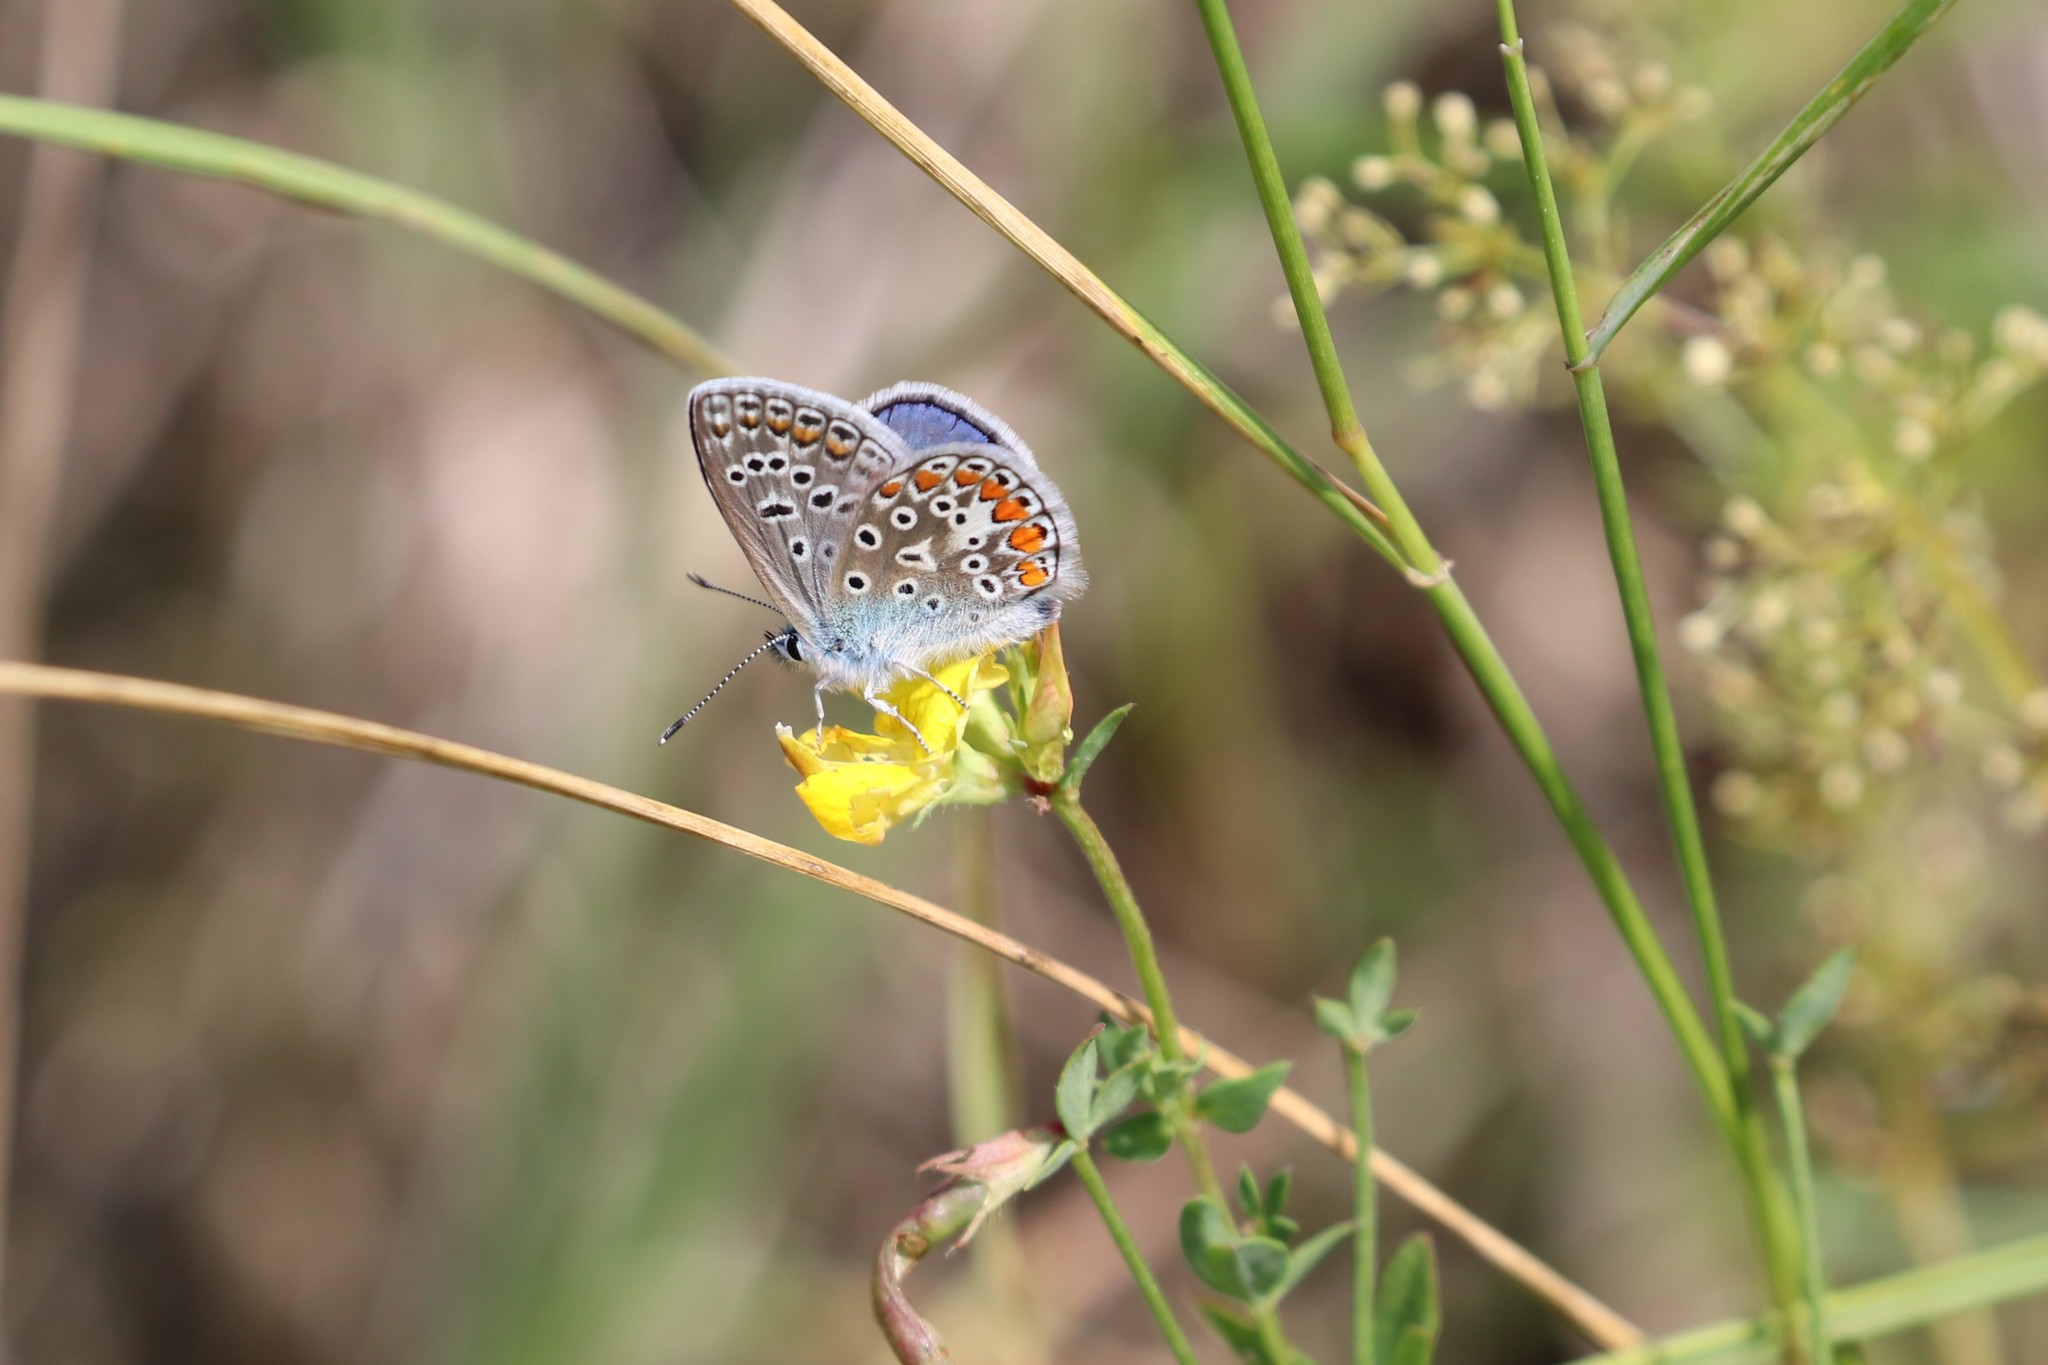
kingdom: Animalia
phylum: Arthropoda
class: Insecta
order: Lepidoptera
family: Lycaenidae
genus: Polyommatus
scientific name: Polyommatus icarus
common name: Common blue
